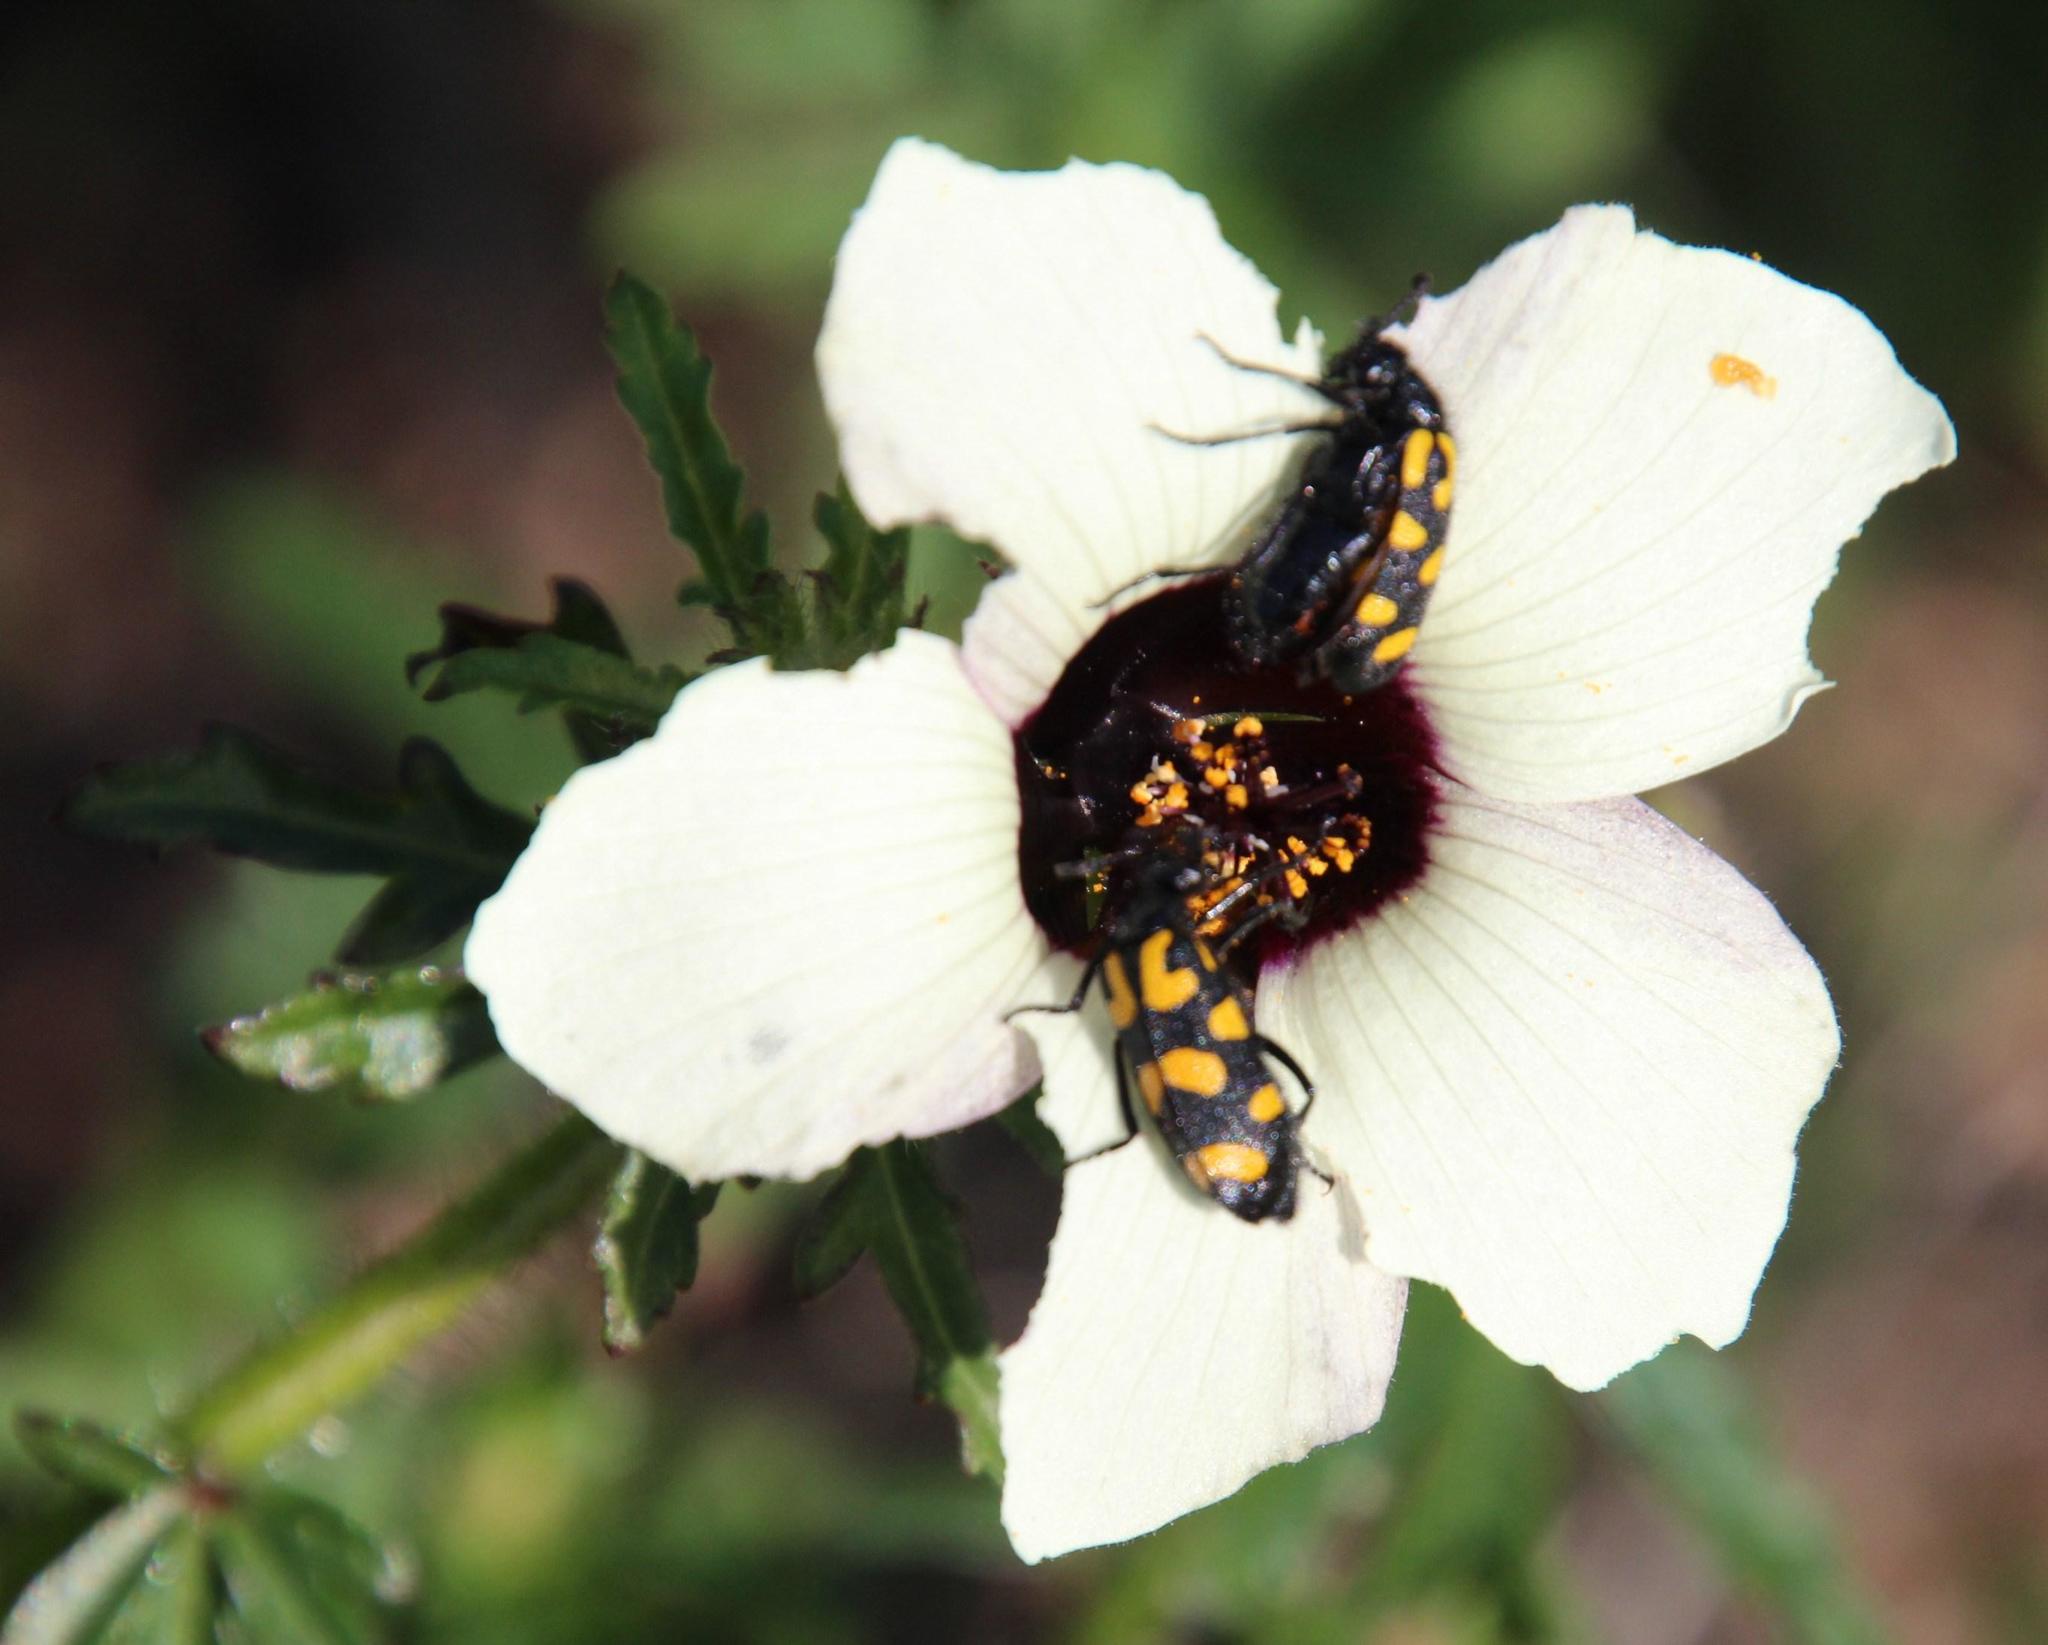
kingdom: Animalia
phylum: Arthropoda
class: Insecta
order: Coleoptera
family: Meloidae
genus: Ceroctis
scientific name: Ceroctis capensis
